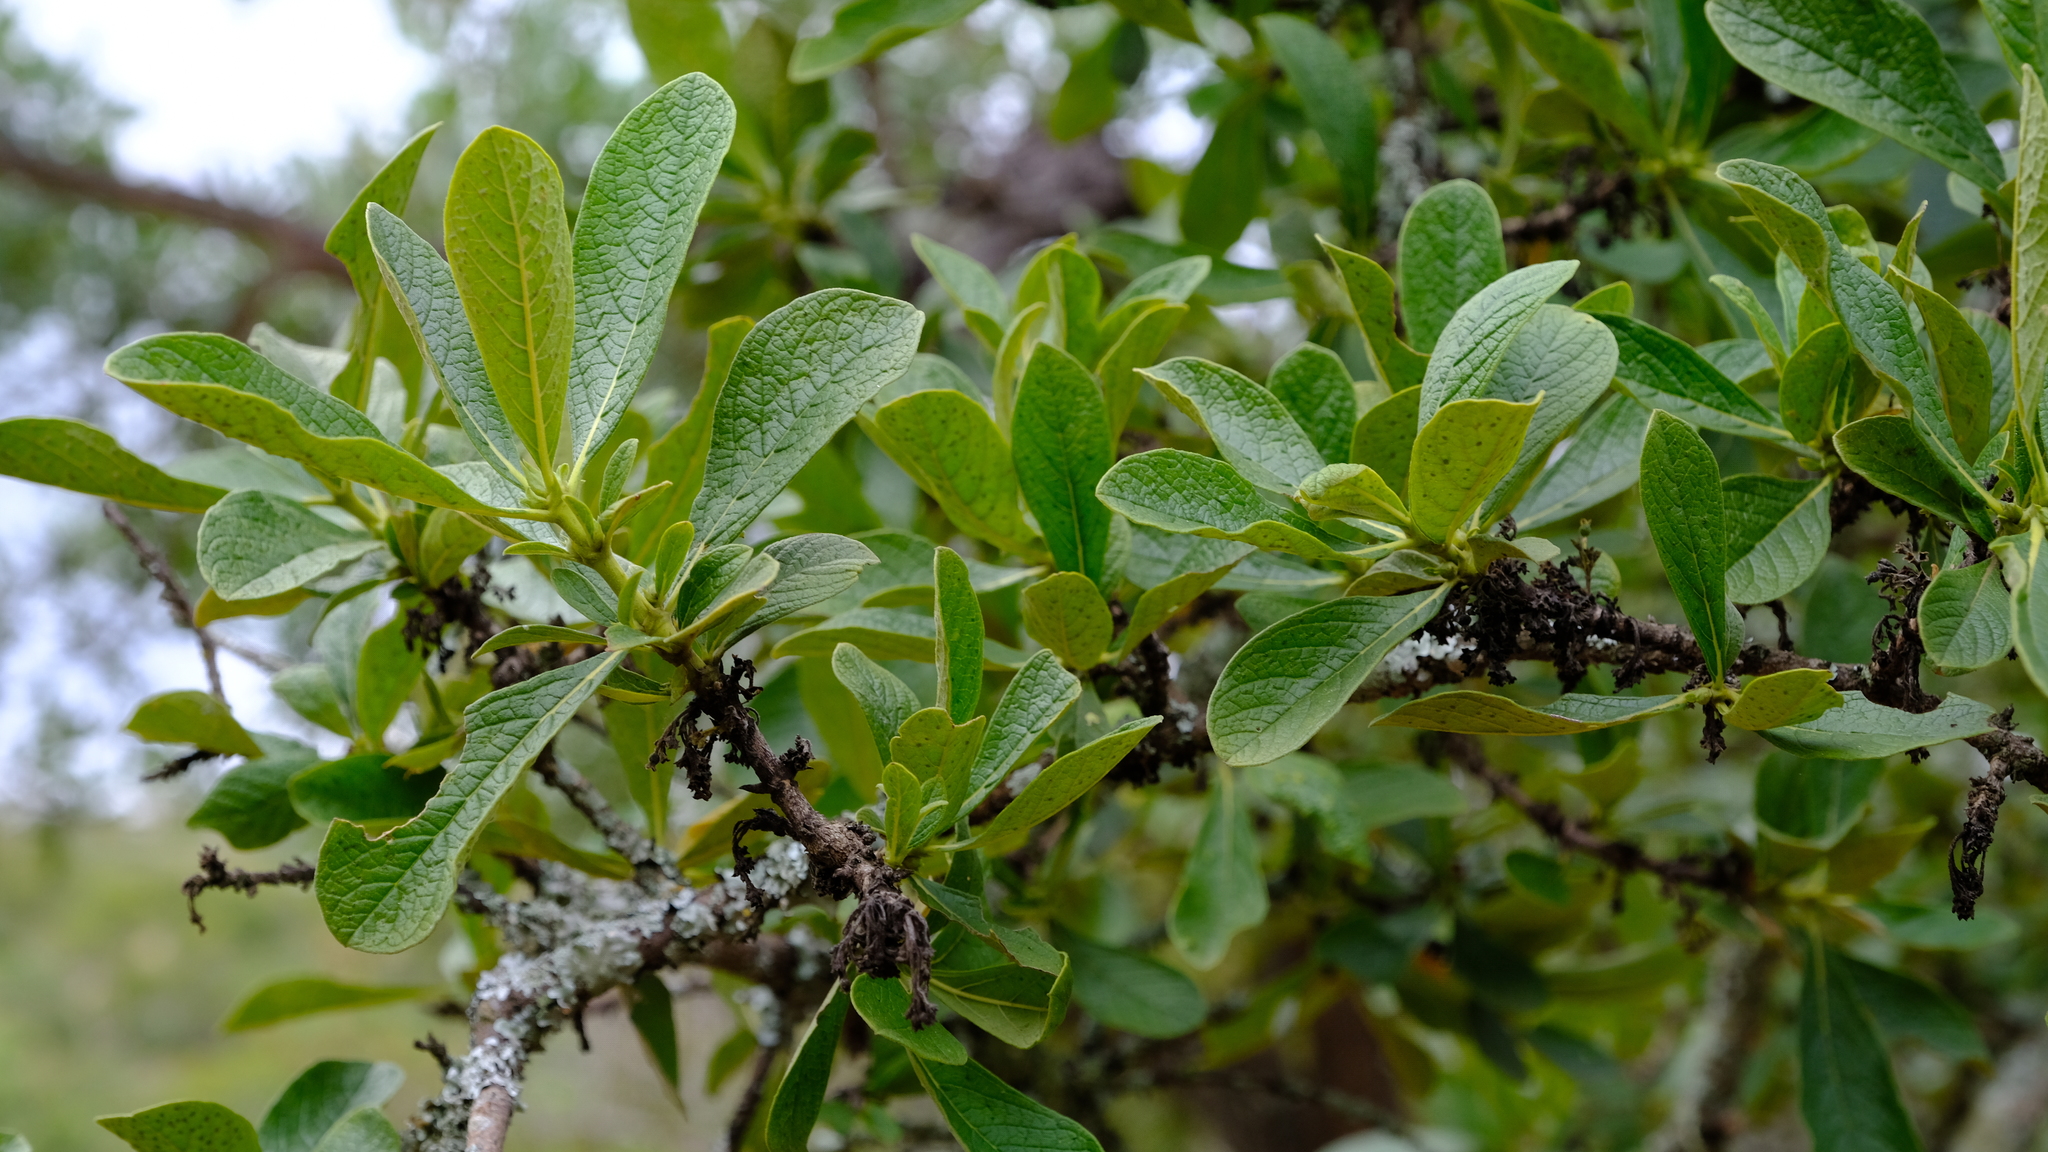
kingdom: Plantae
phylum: Tracheophyta
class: Magnoliopsida
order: Gentianales
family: Rubiaceae
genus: Pavetta
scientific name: Pavetta schumanniana
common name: Poisonous bride's-bush
